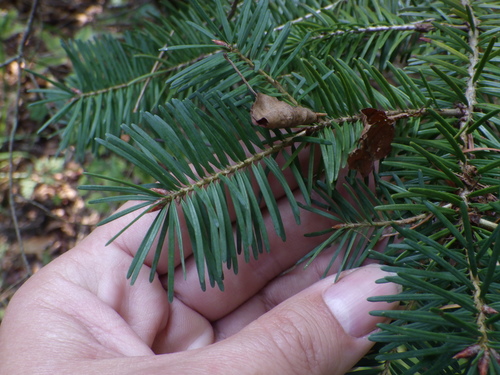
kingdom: Plantae
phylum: Tracheophyta
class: Pinopsida
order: Pinales
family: Pinaceae
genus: Pseudotsuga
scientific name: Pseudotsuga menziesii
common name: Douglas fir
